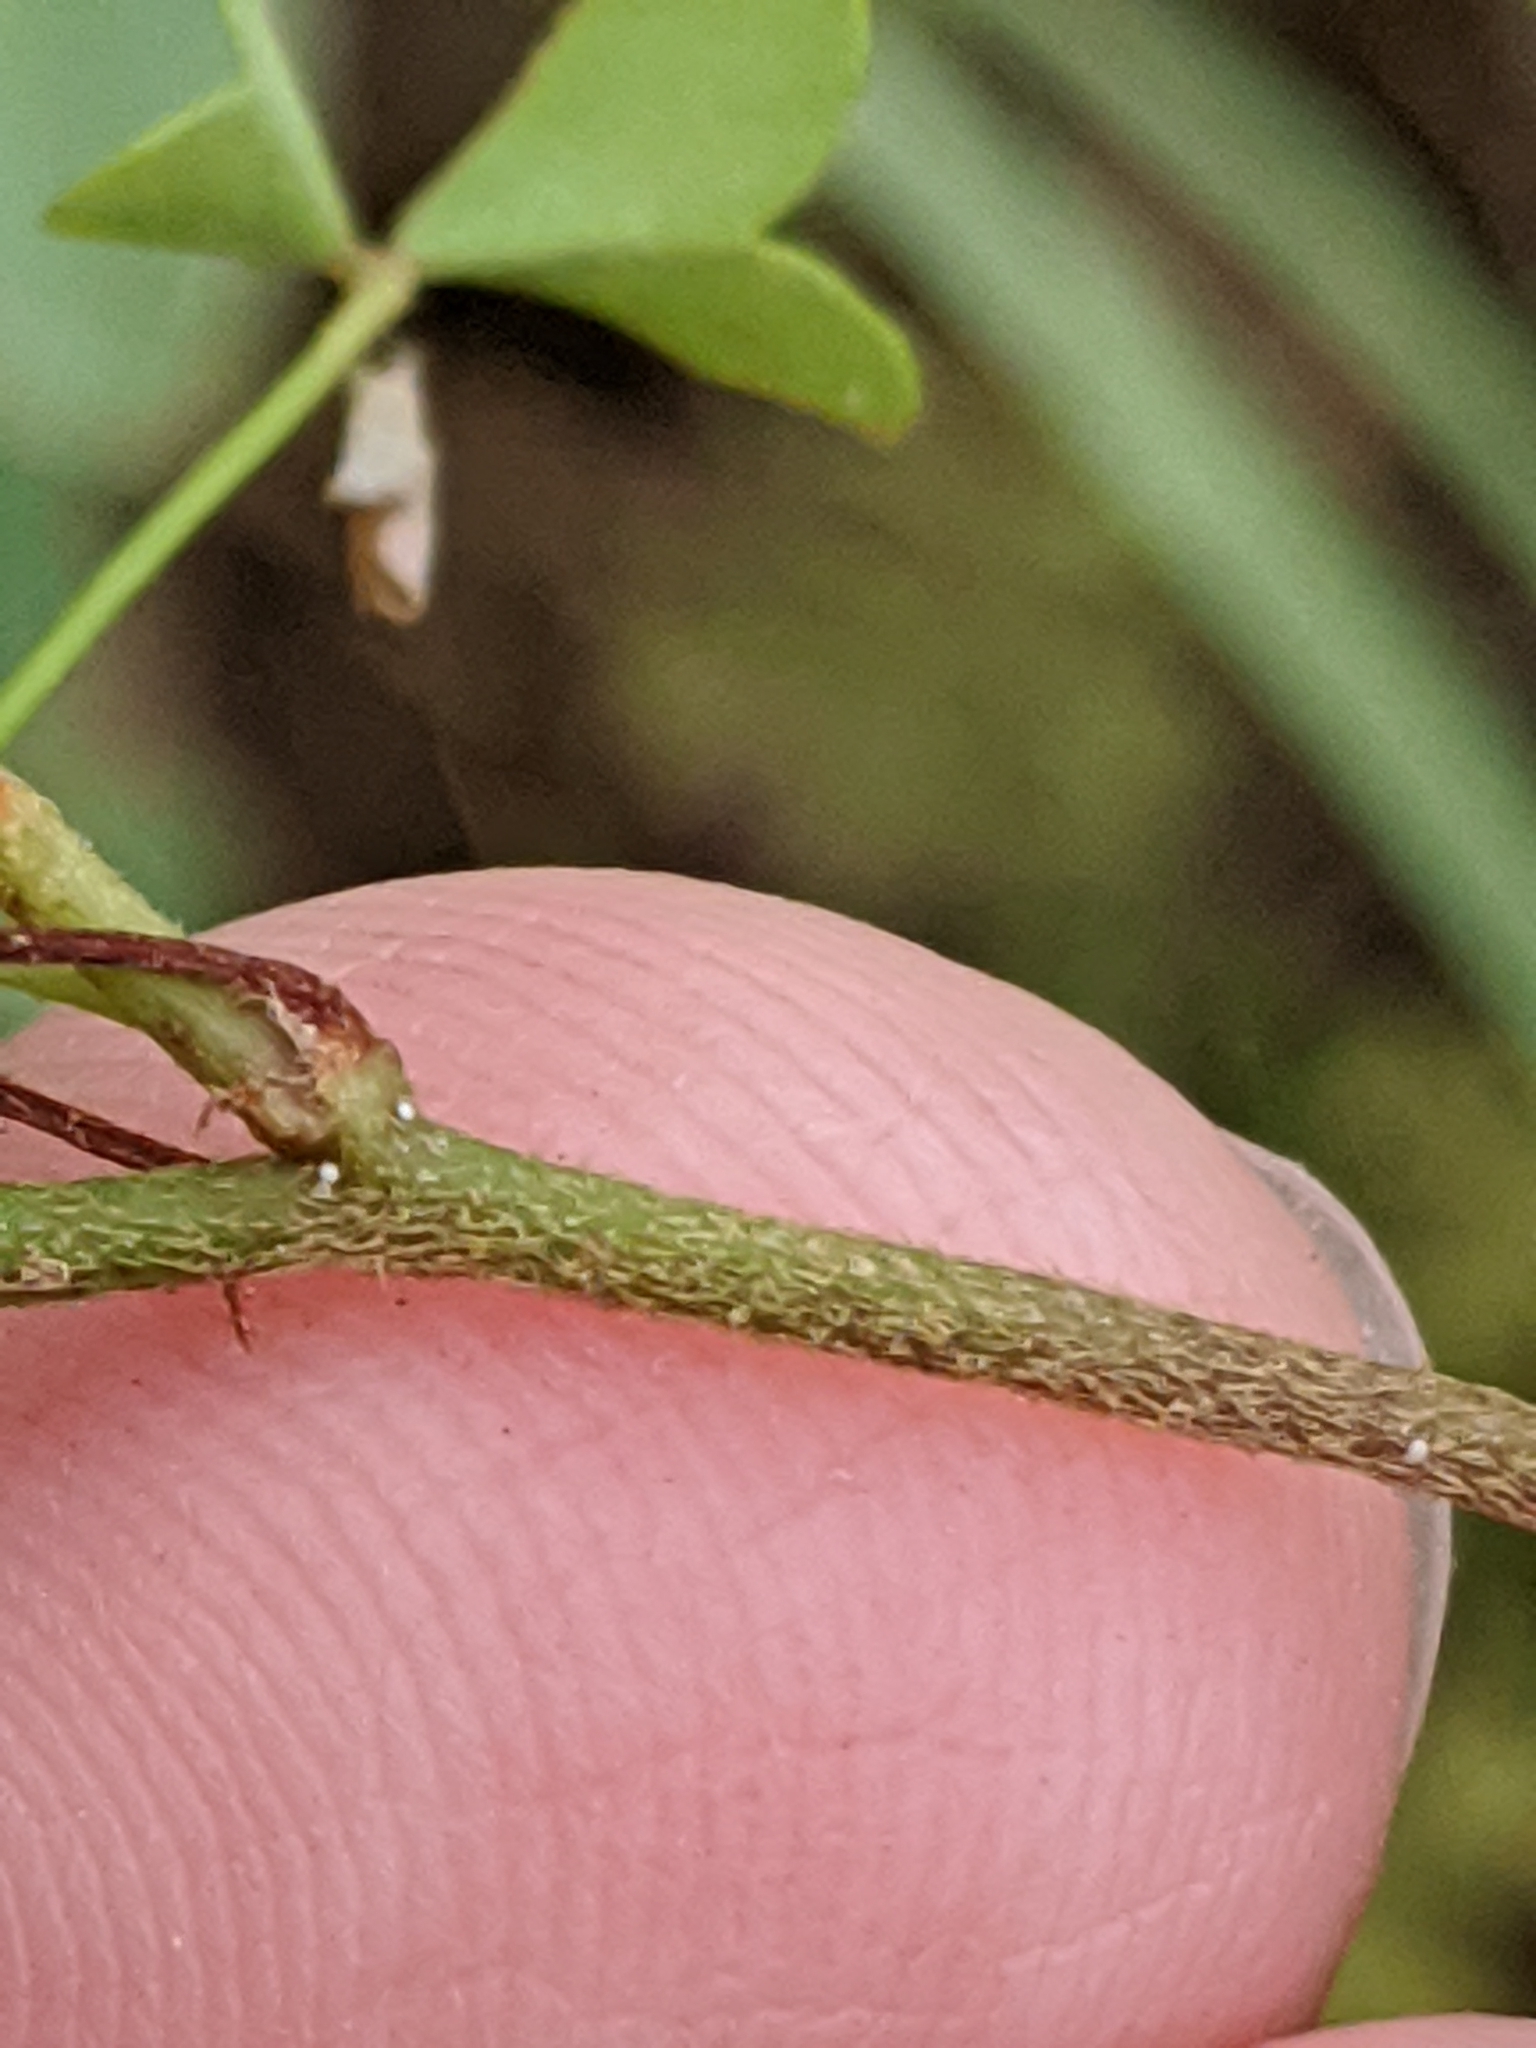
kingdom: Plantae
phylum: Tracheophyta
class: Magnoliopsida
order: Oxalidales
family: Oxalidaceae
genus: Oxalis
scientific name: Oxalis dillenii
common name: Sussex yellow-sorrel
